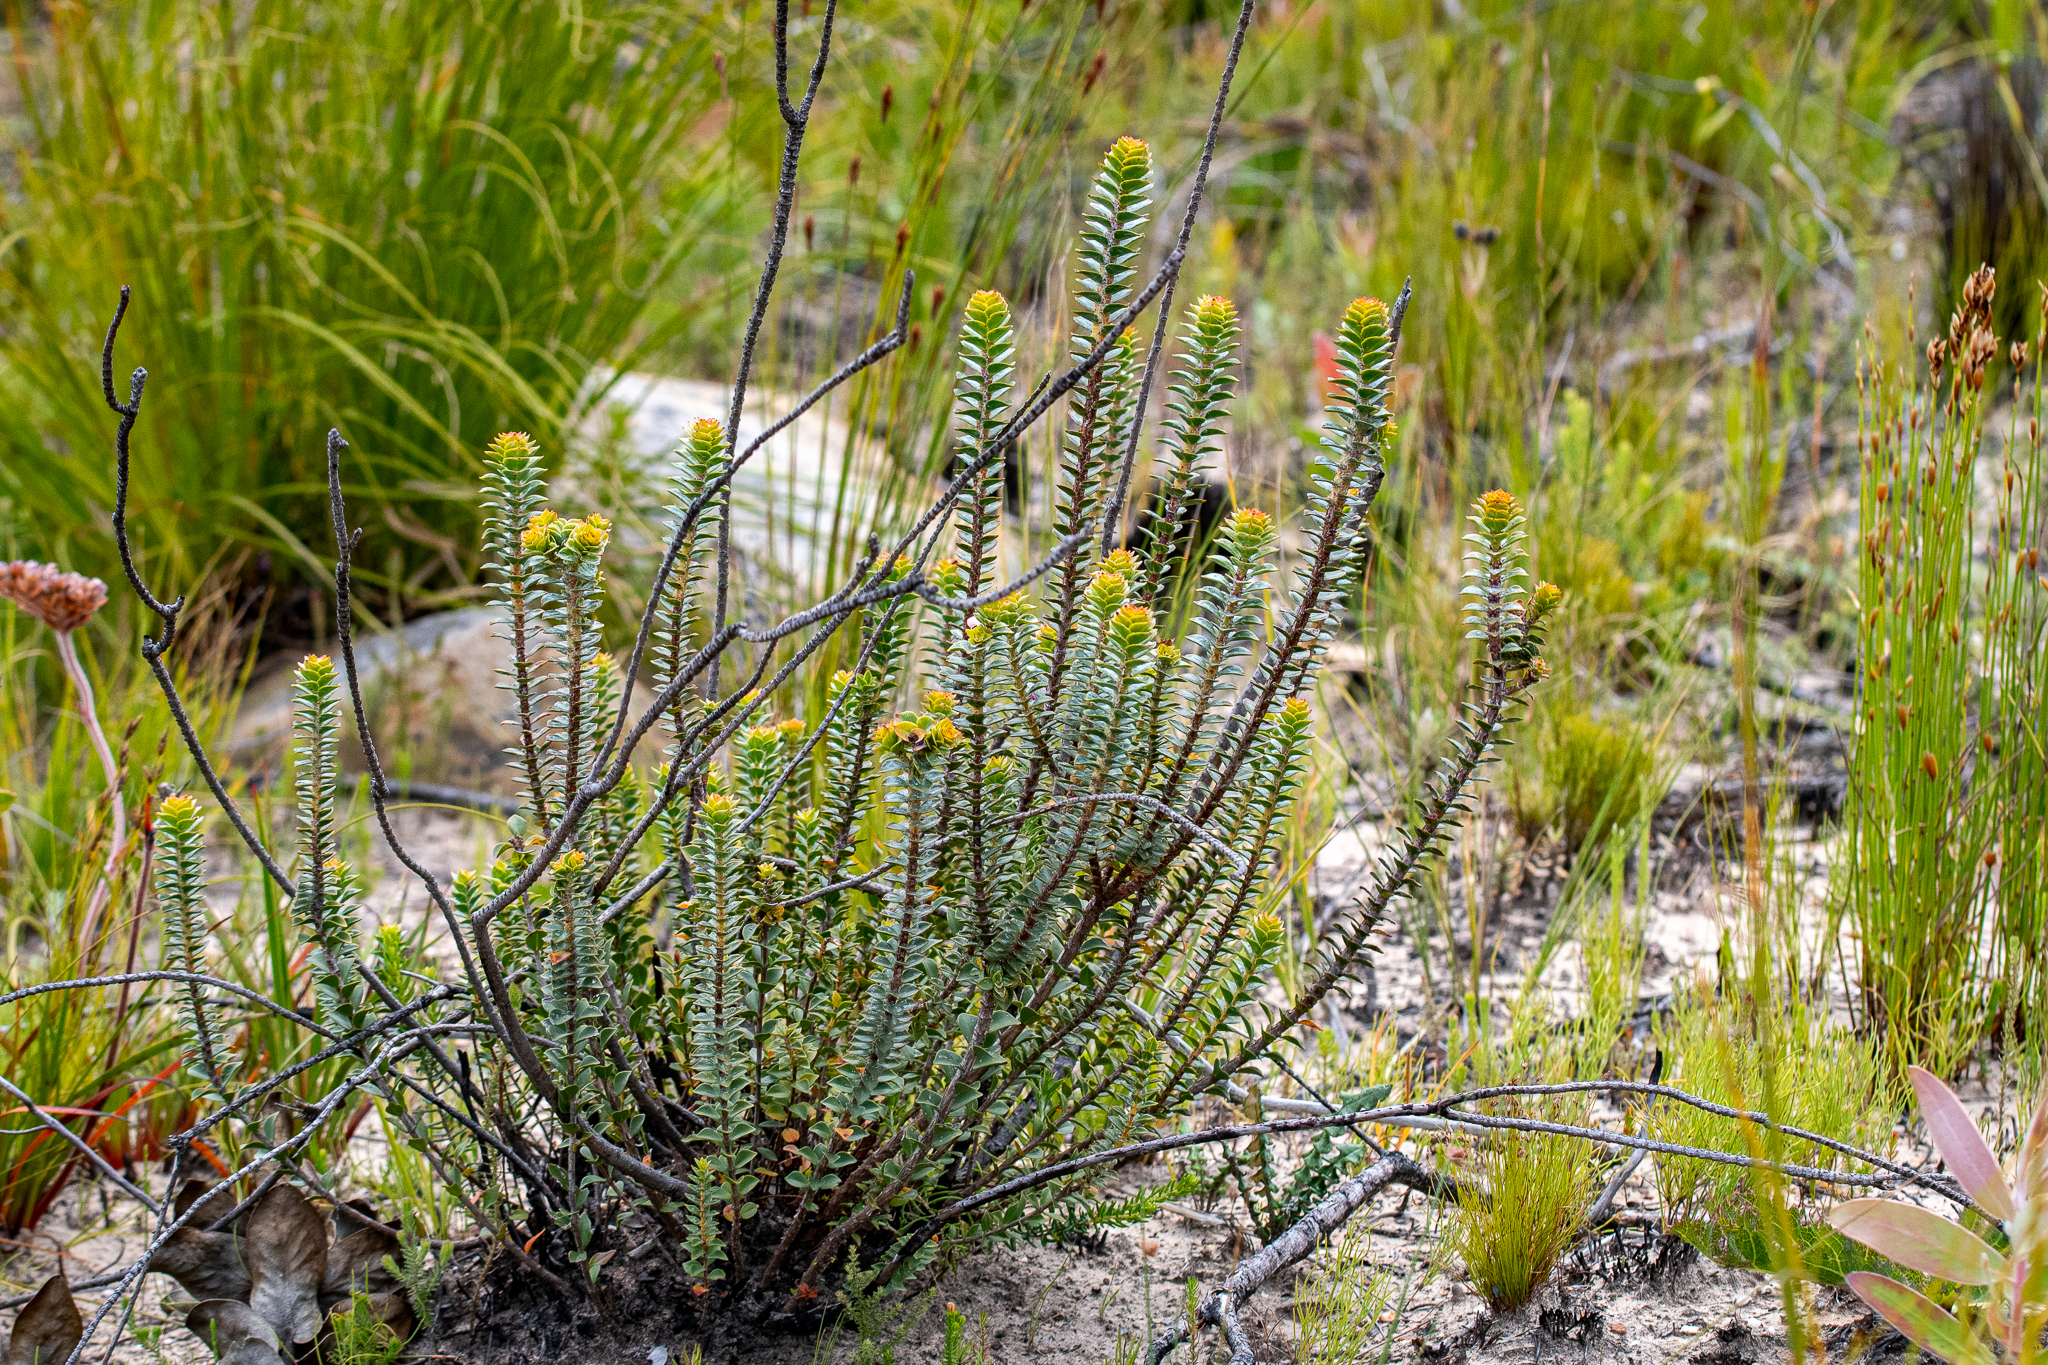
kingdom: Plantae
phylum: Tracheophyta
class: Magnoliopsida
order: Myrtales
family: Penaeaceae
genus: Saltera
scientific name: Saltera sarcocolla
